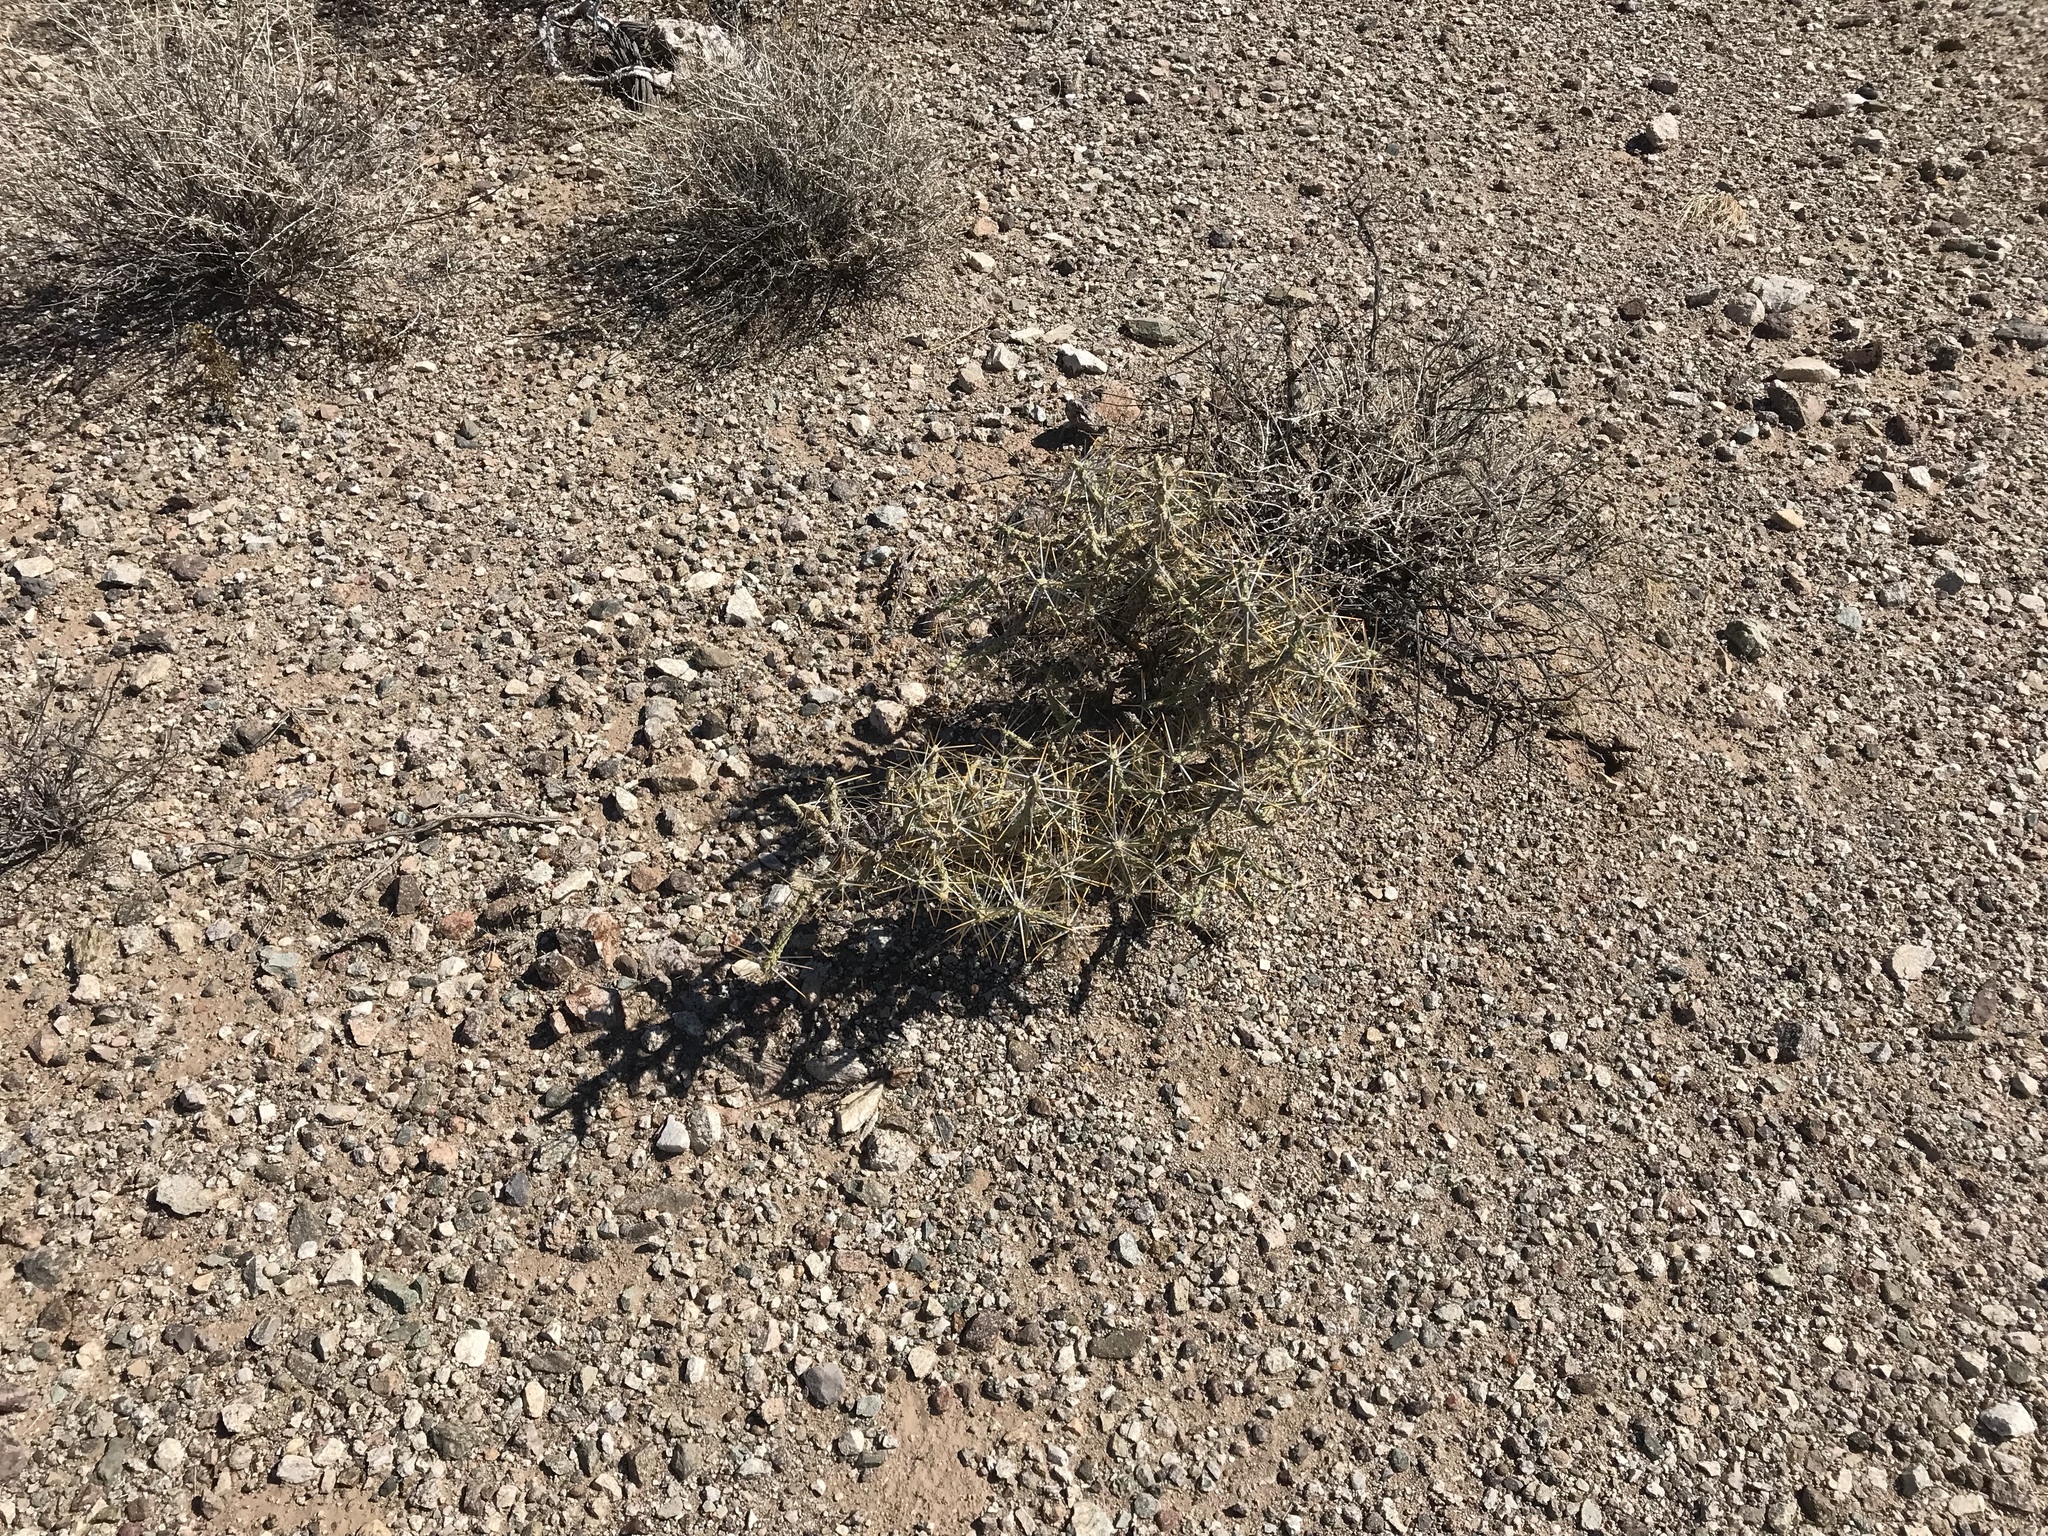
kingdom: Plantae
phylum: Tracheophyta
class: Magnoliopsida
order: Caryophyllales
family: Cactaceae
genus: Cylindropuntia
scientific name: Cylindropuntia ramosissima
